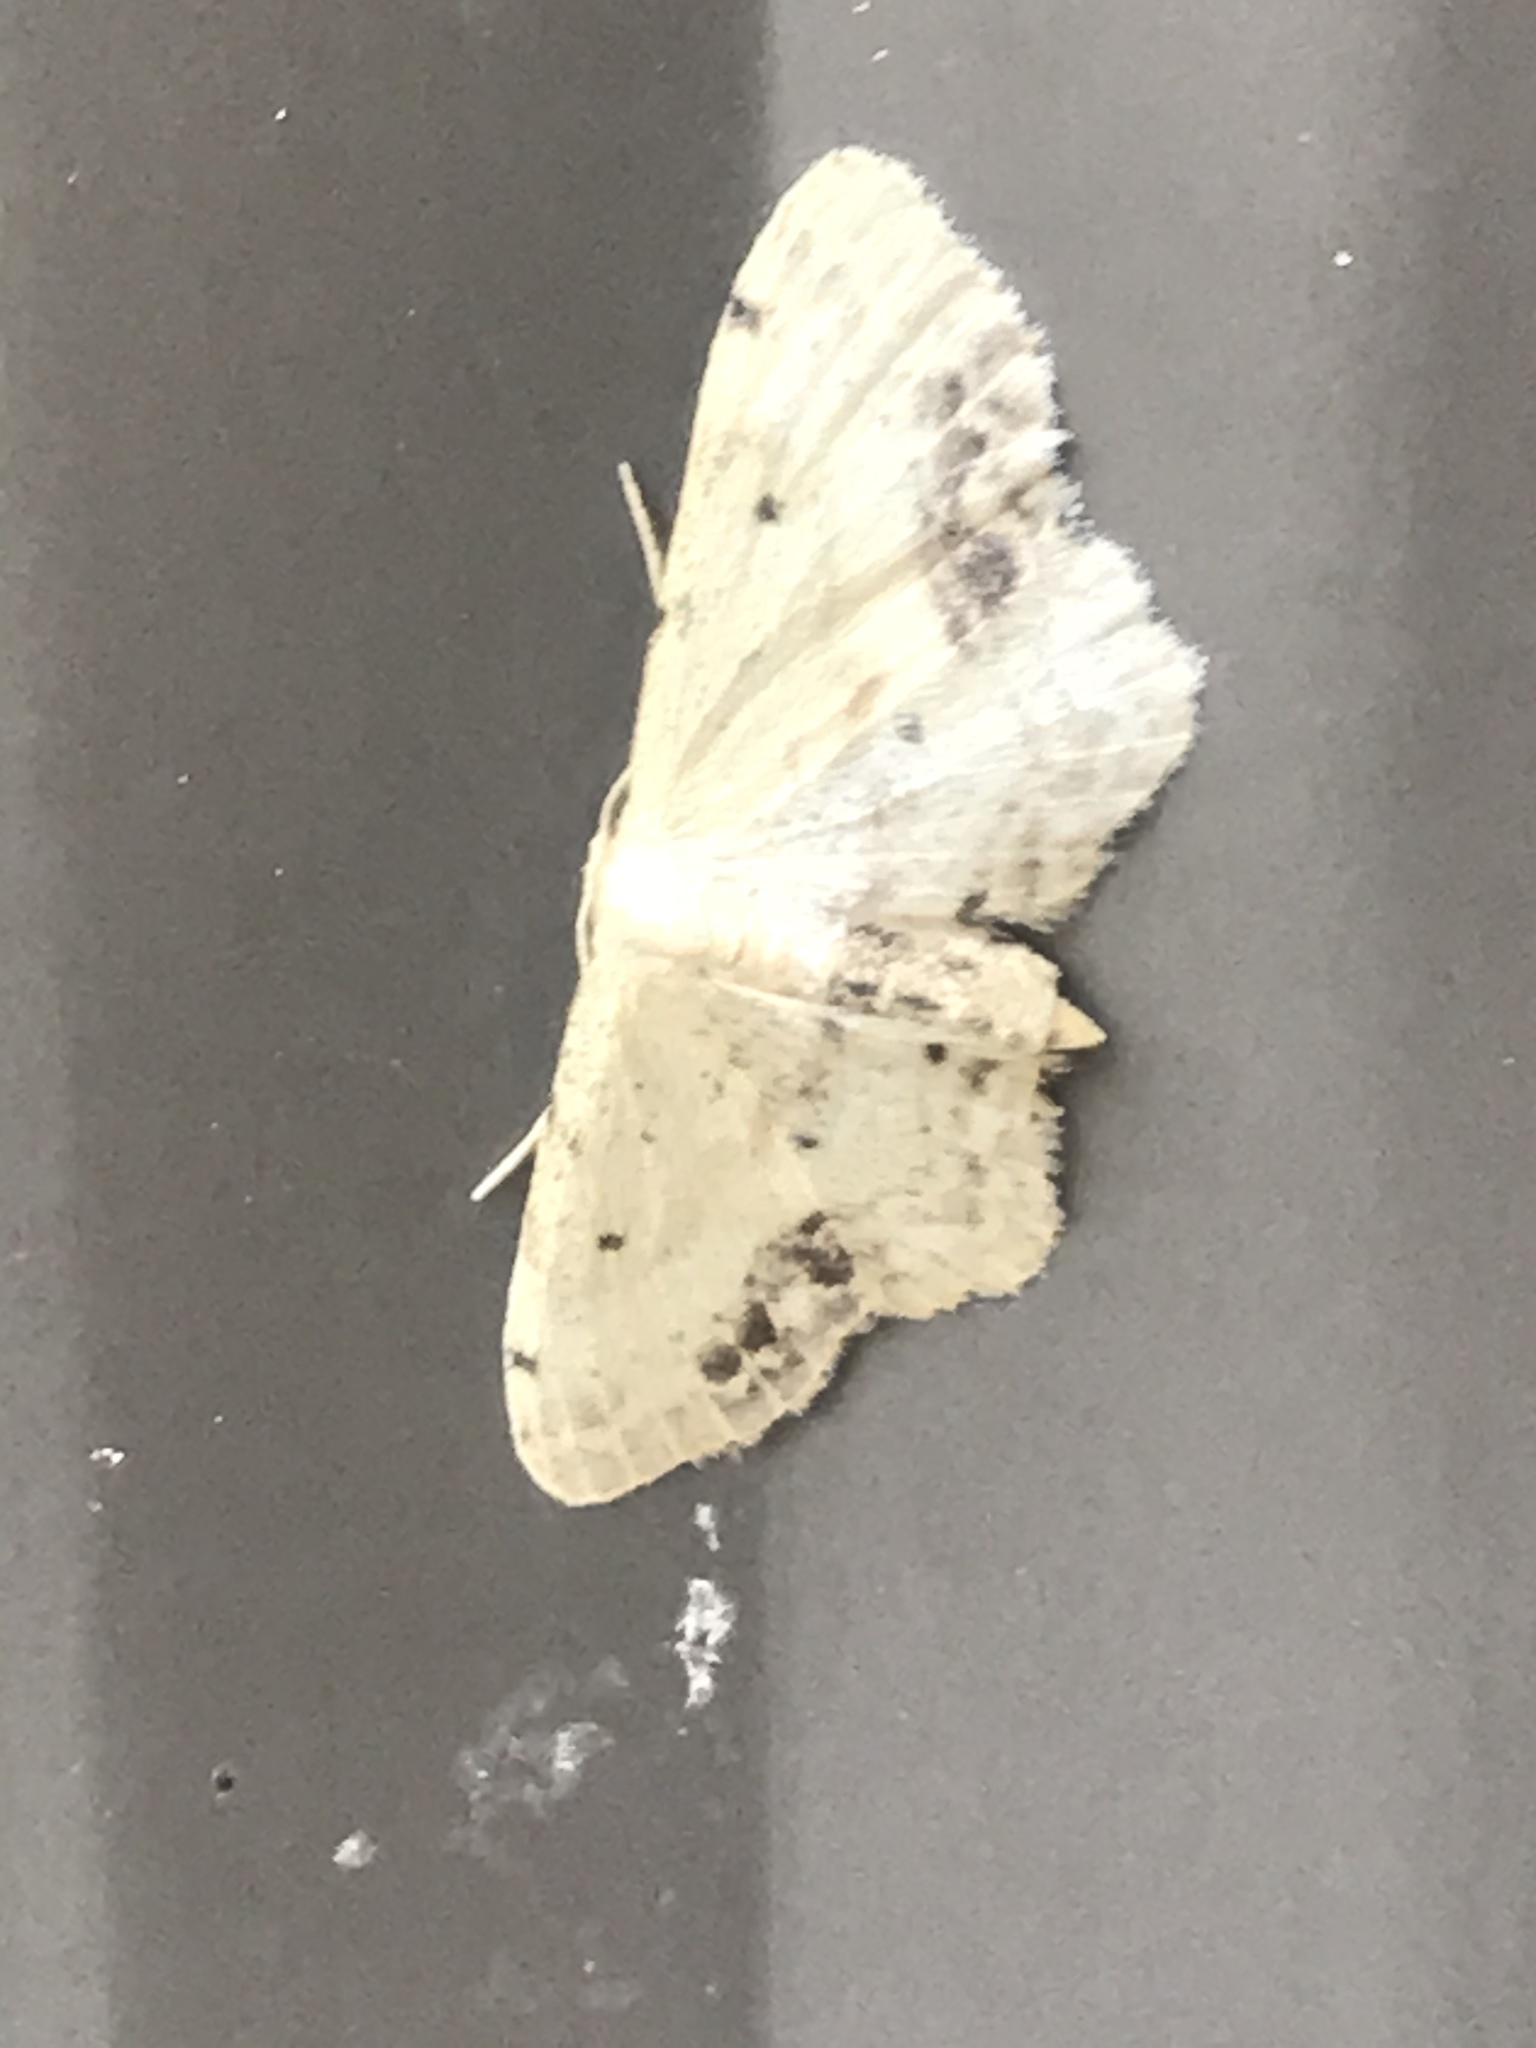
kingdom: Animalia
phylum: Arthropoda
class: Insecta
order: Lepidoptera
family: Geometridae
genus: Idaea
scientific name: Idaea dimidiata
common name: Single-dotted wave
